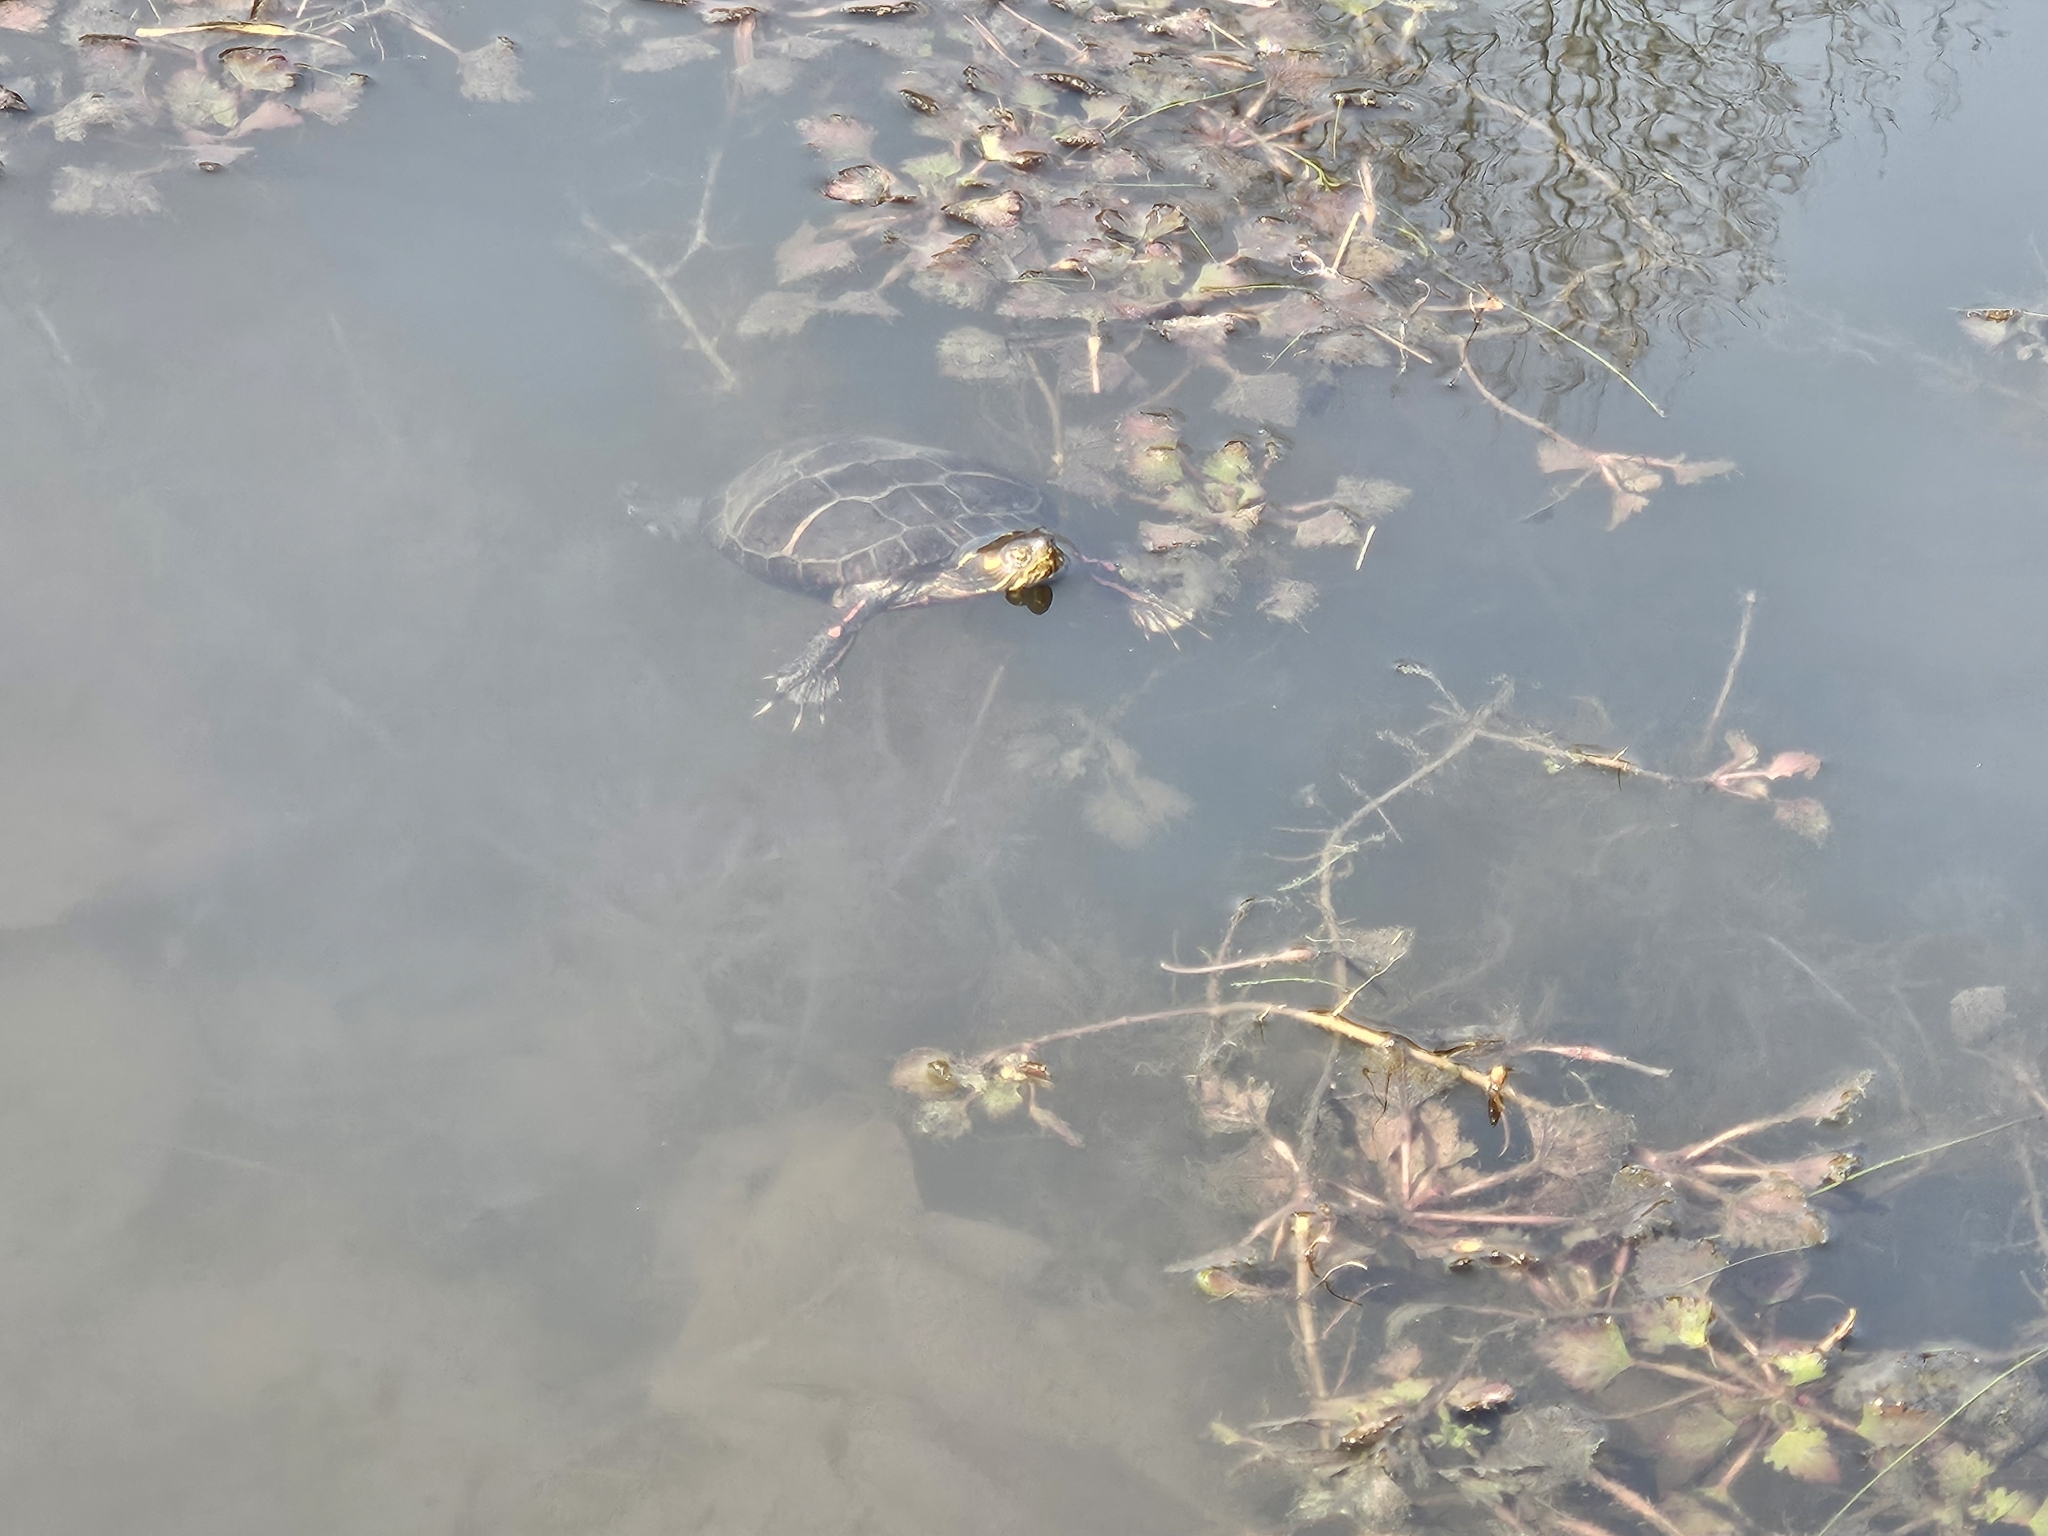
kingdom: Animalia
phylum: Chordata
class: Testudines
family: Emydidae
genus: Chrysemys
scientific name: Chrysemys picta
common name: Painted turtle
